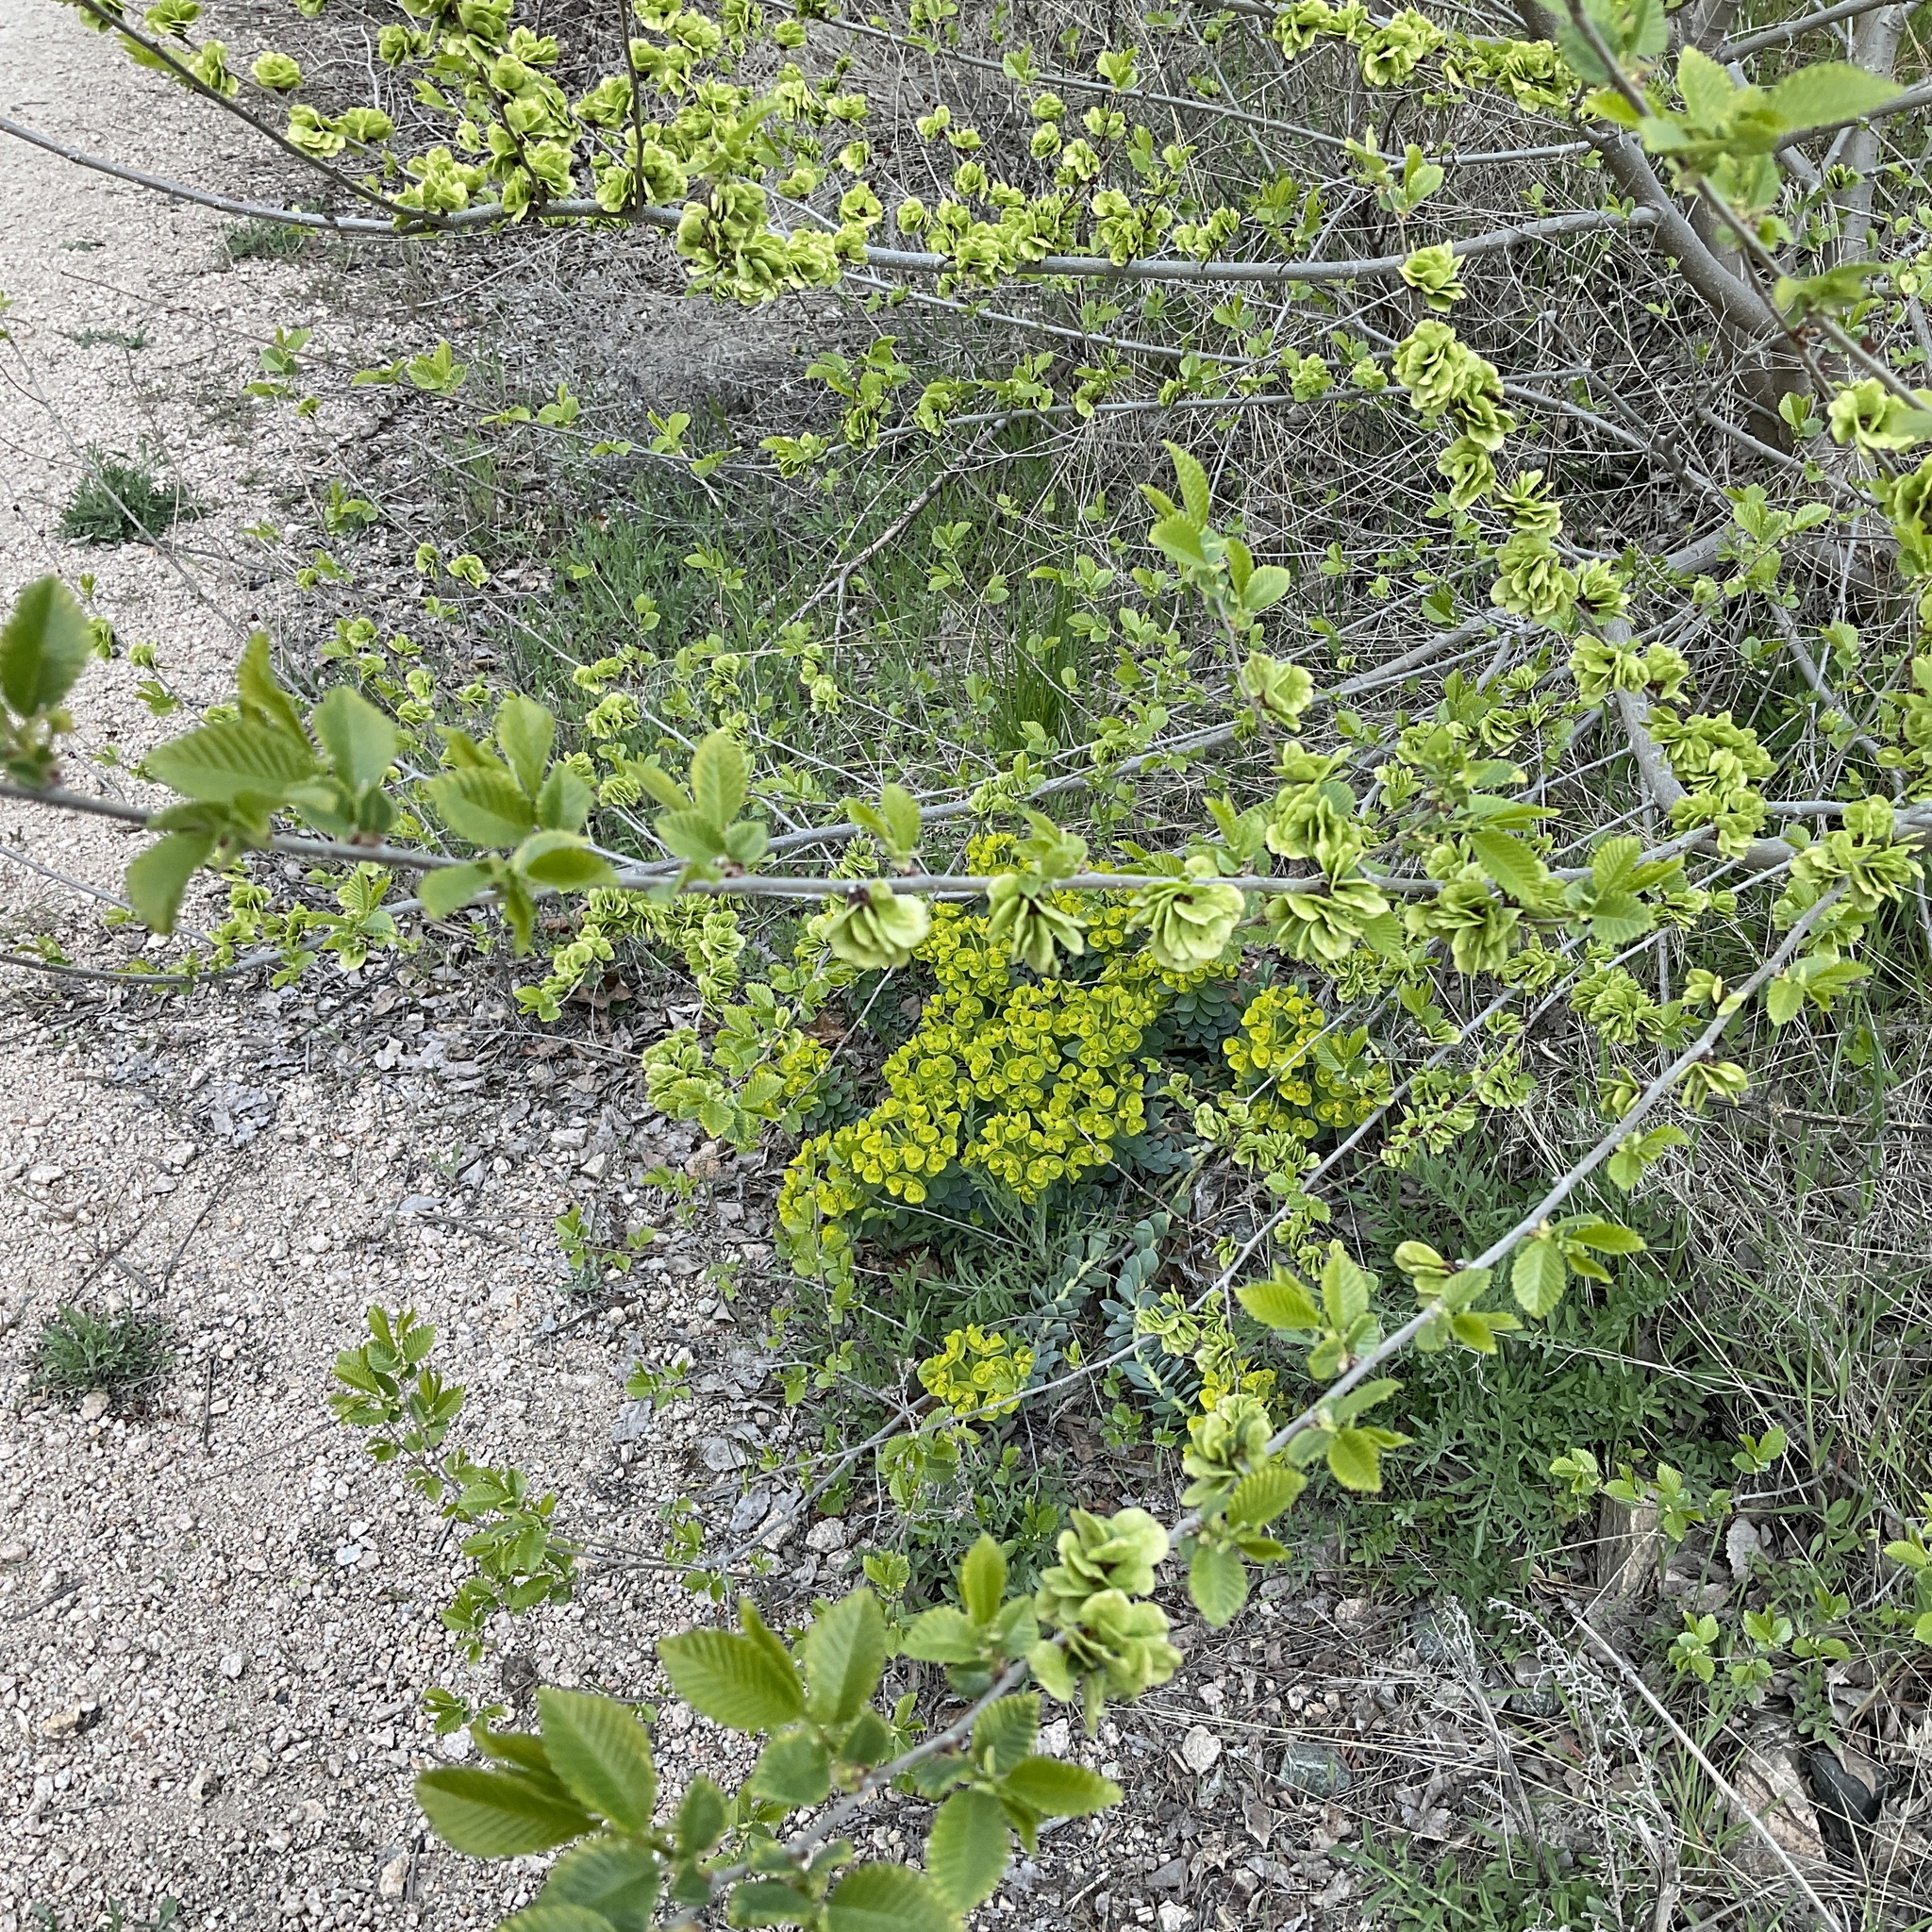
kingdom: Plantae
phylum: Tracheophyta
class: Magnoliopsida
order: Rosales
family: Ulmaceae
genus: Ulmus
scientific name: Ulmus pumila
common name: Siberian elm
